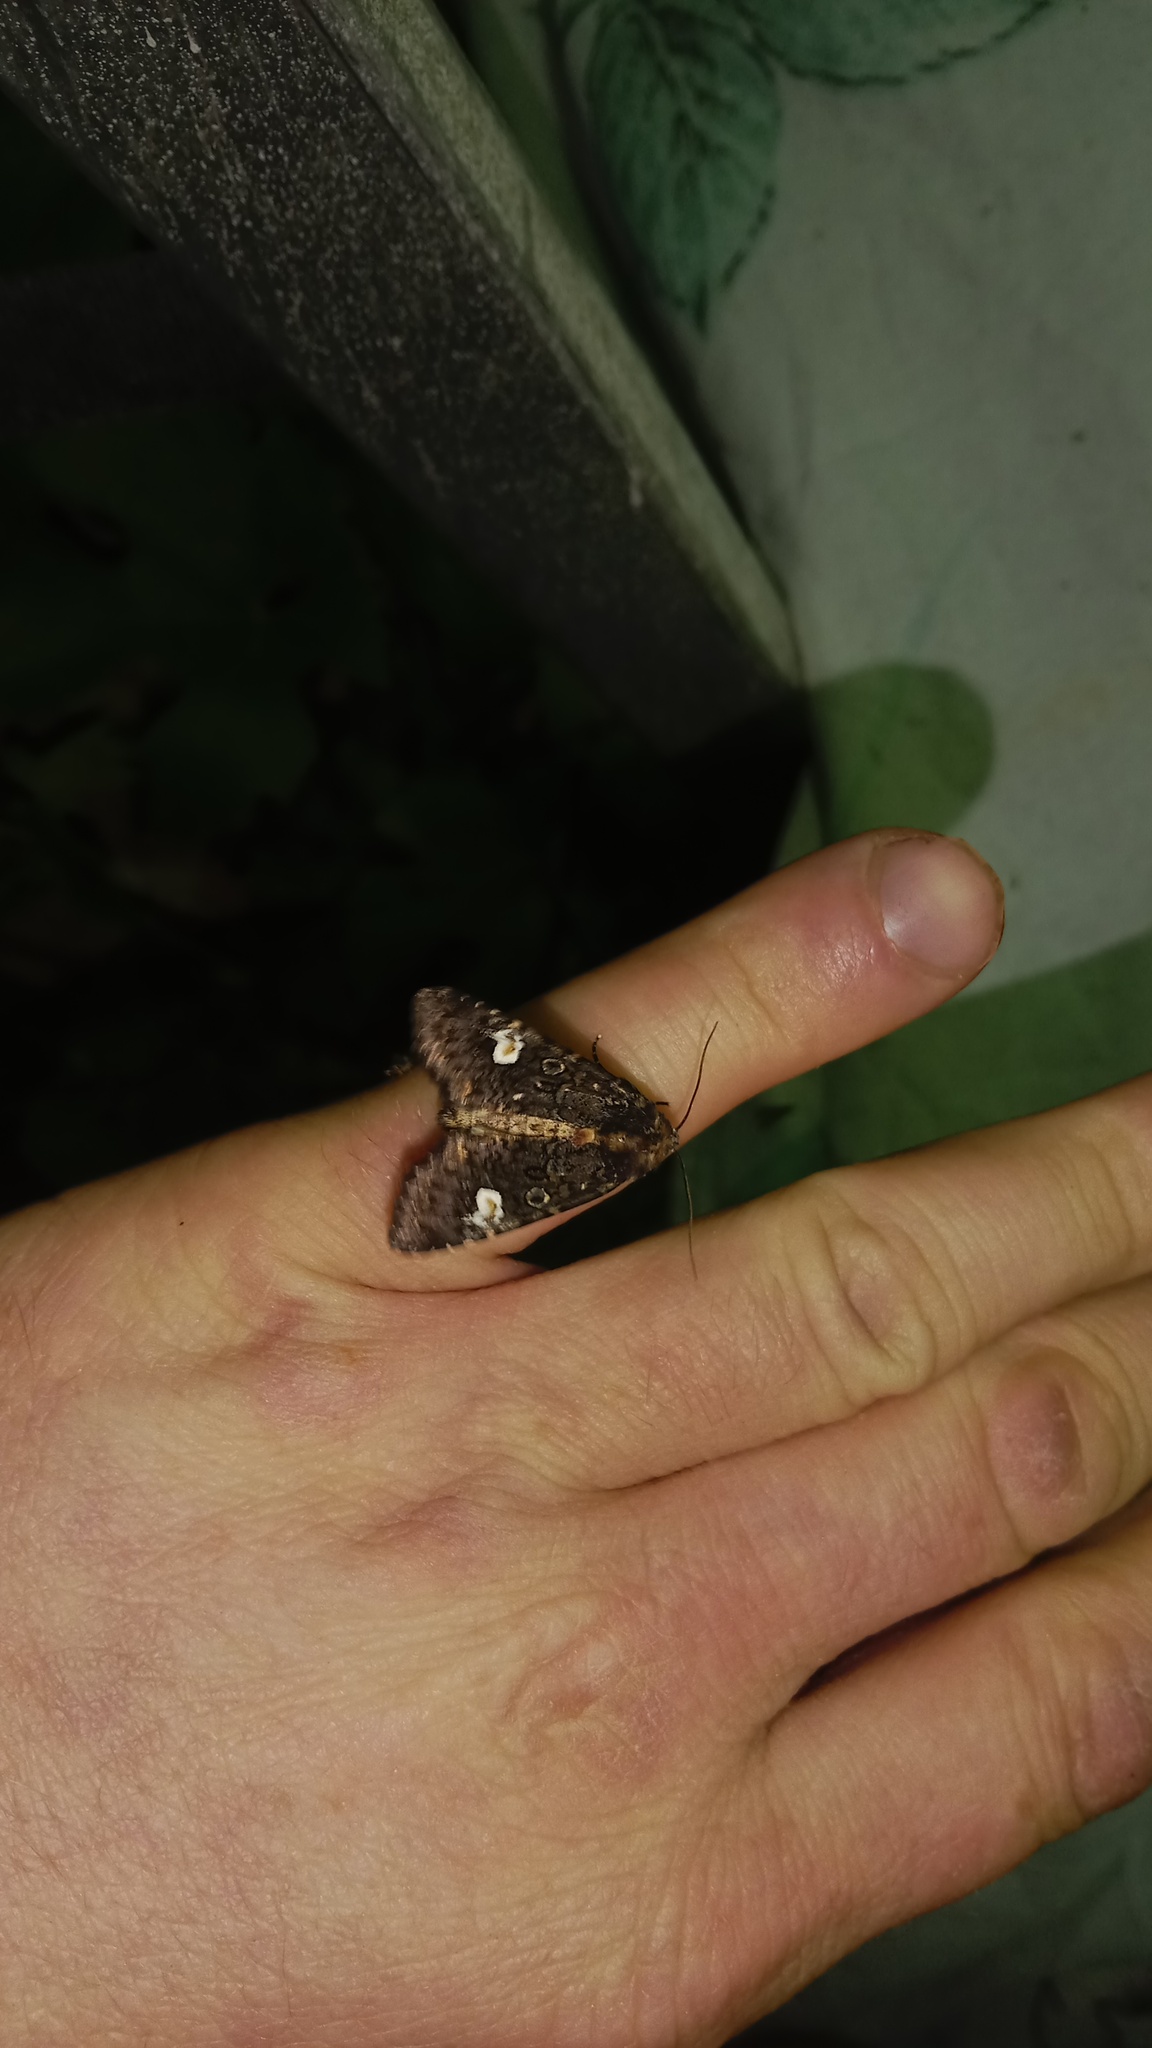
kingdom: Animalia
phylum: Arthropoda
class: Insecta
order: Lepidoptera
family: Noctuidae
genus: Melanchra
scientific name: Melanchra persicariae
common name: Dot moth
